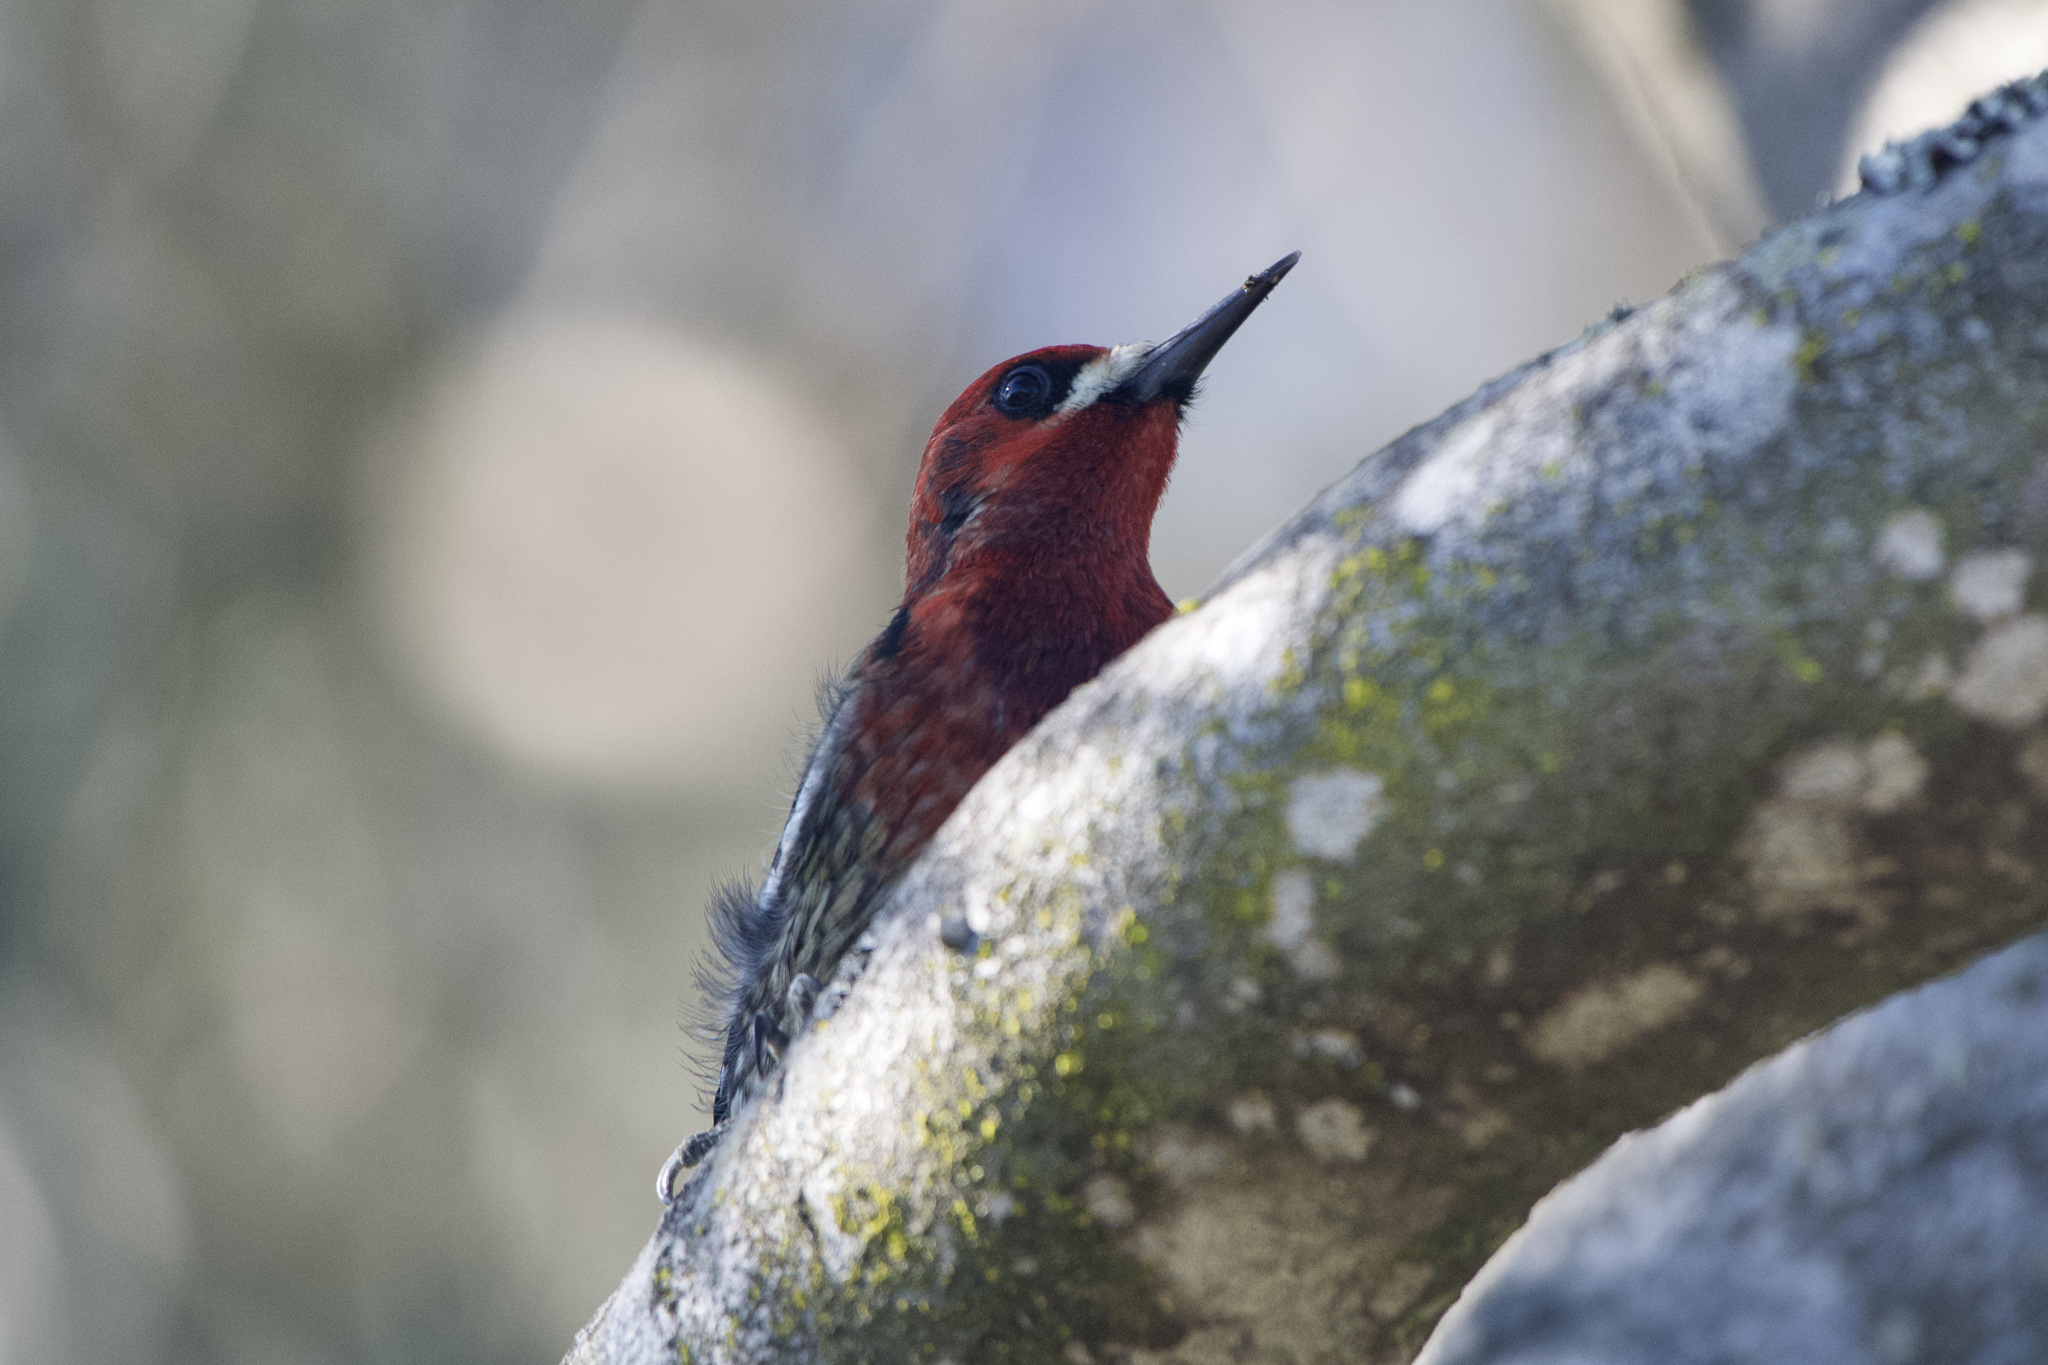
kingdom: Animalia
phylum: Chordata
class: Aves
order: Piciformes
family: Picidae
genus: Sphyrapicus
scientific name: Sphyrapicus ruber
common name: Red-breasted sapsucker
